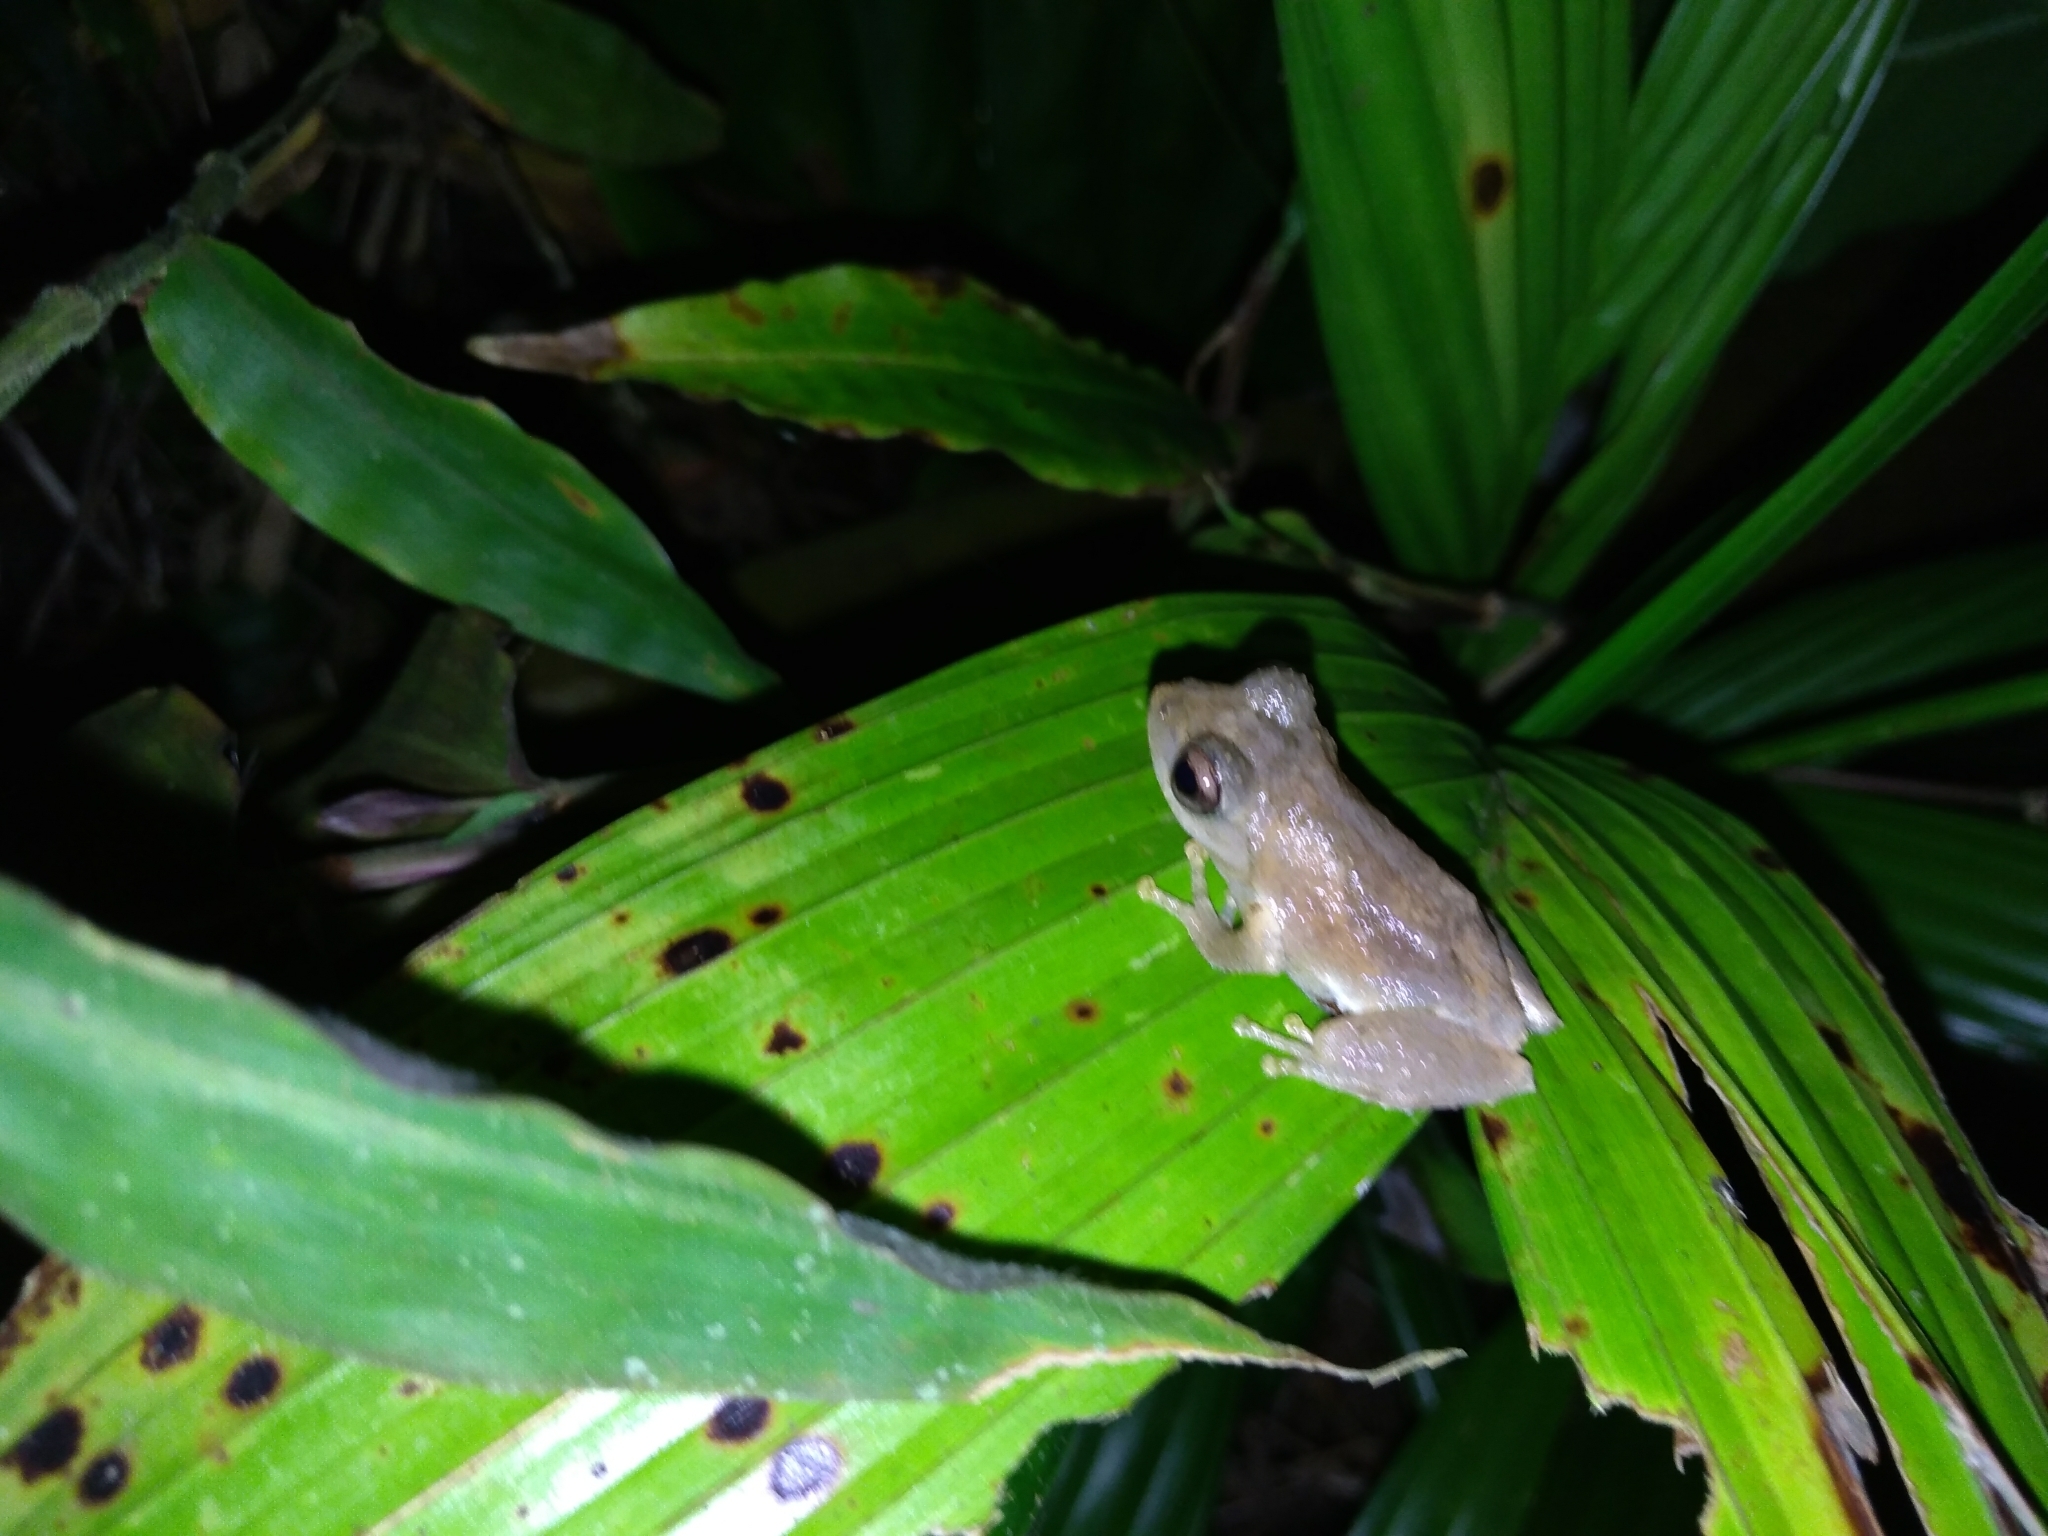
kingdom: Animalia
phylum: Chordata
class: Amphibia
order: Anura
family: Rhacophoridae
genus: Kurixalus
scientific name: Kurixalus idiootocus
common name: Temple treefrog
